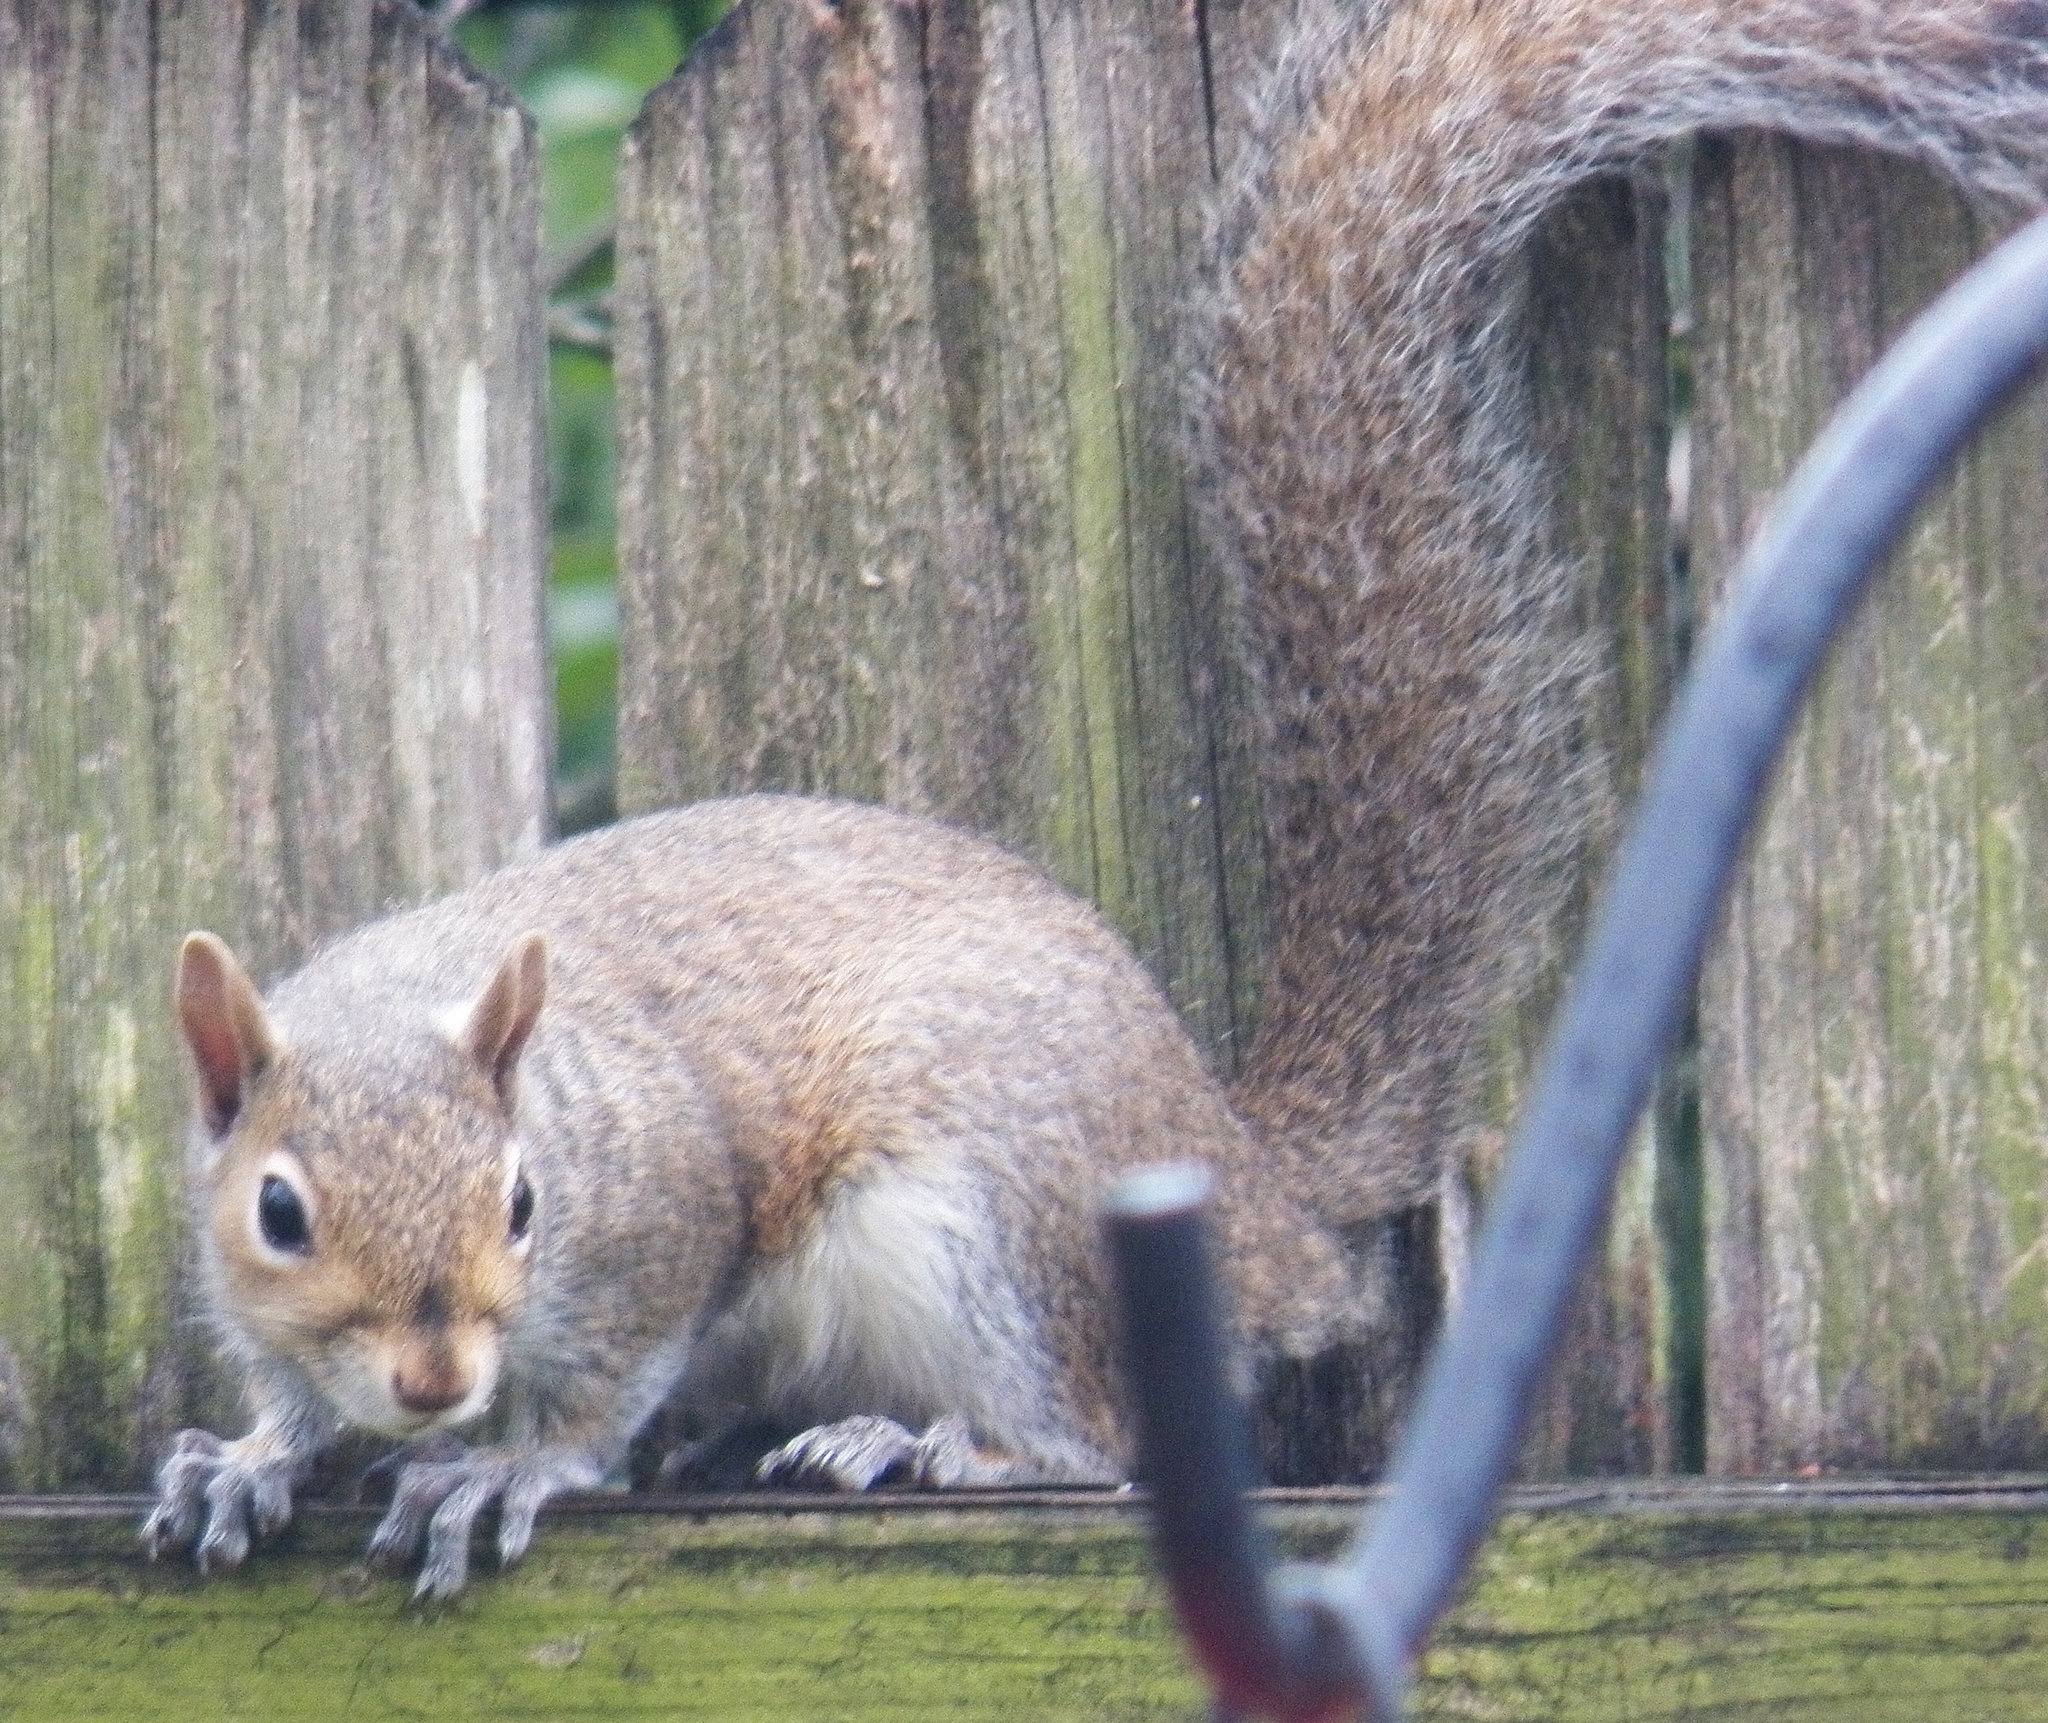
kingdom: Animalia
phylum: Chordata
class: Mammalia
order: Rodentia
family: Sciuridae
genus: Sciurus
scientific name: Sciurus carolinensis
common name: Eastern gray squirrel
